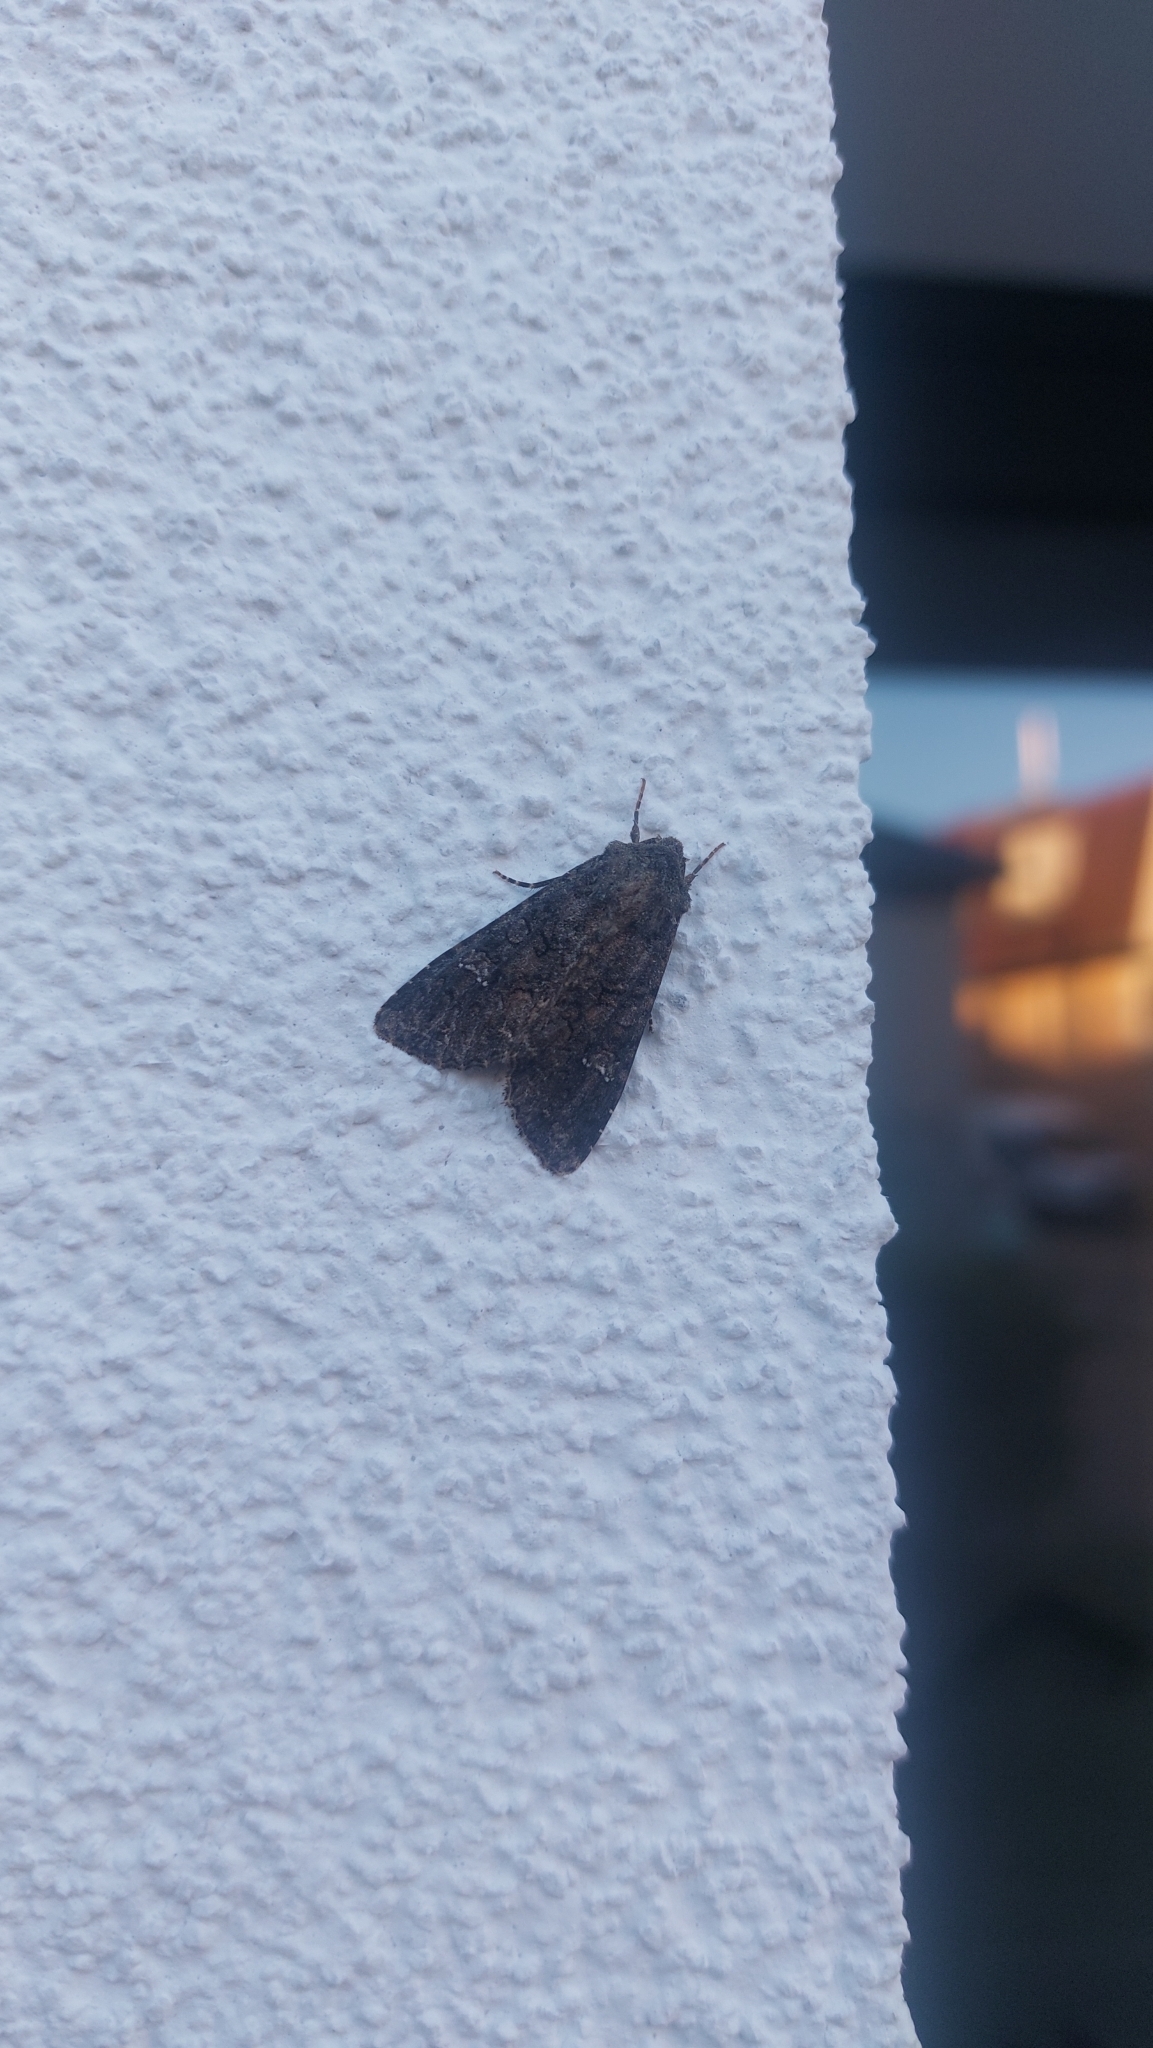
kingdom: Animalia
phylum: Arthropoda
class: Insecta
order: Lepidoptera
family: Noctuidae
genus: Mamestra
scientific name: Mamestra brassicae
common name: Cabbage moth
